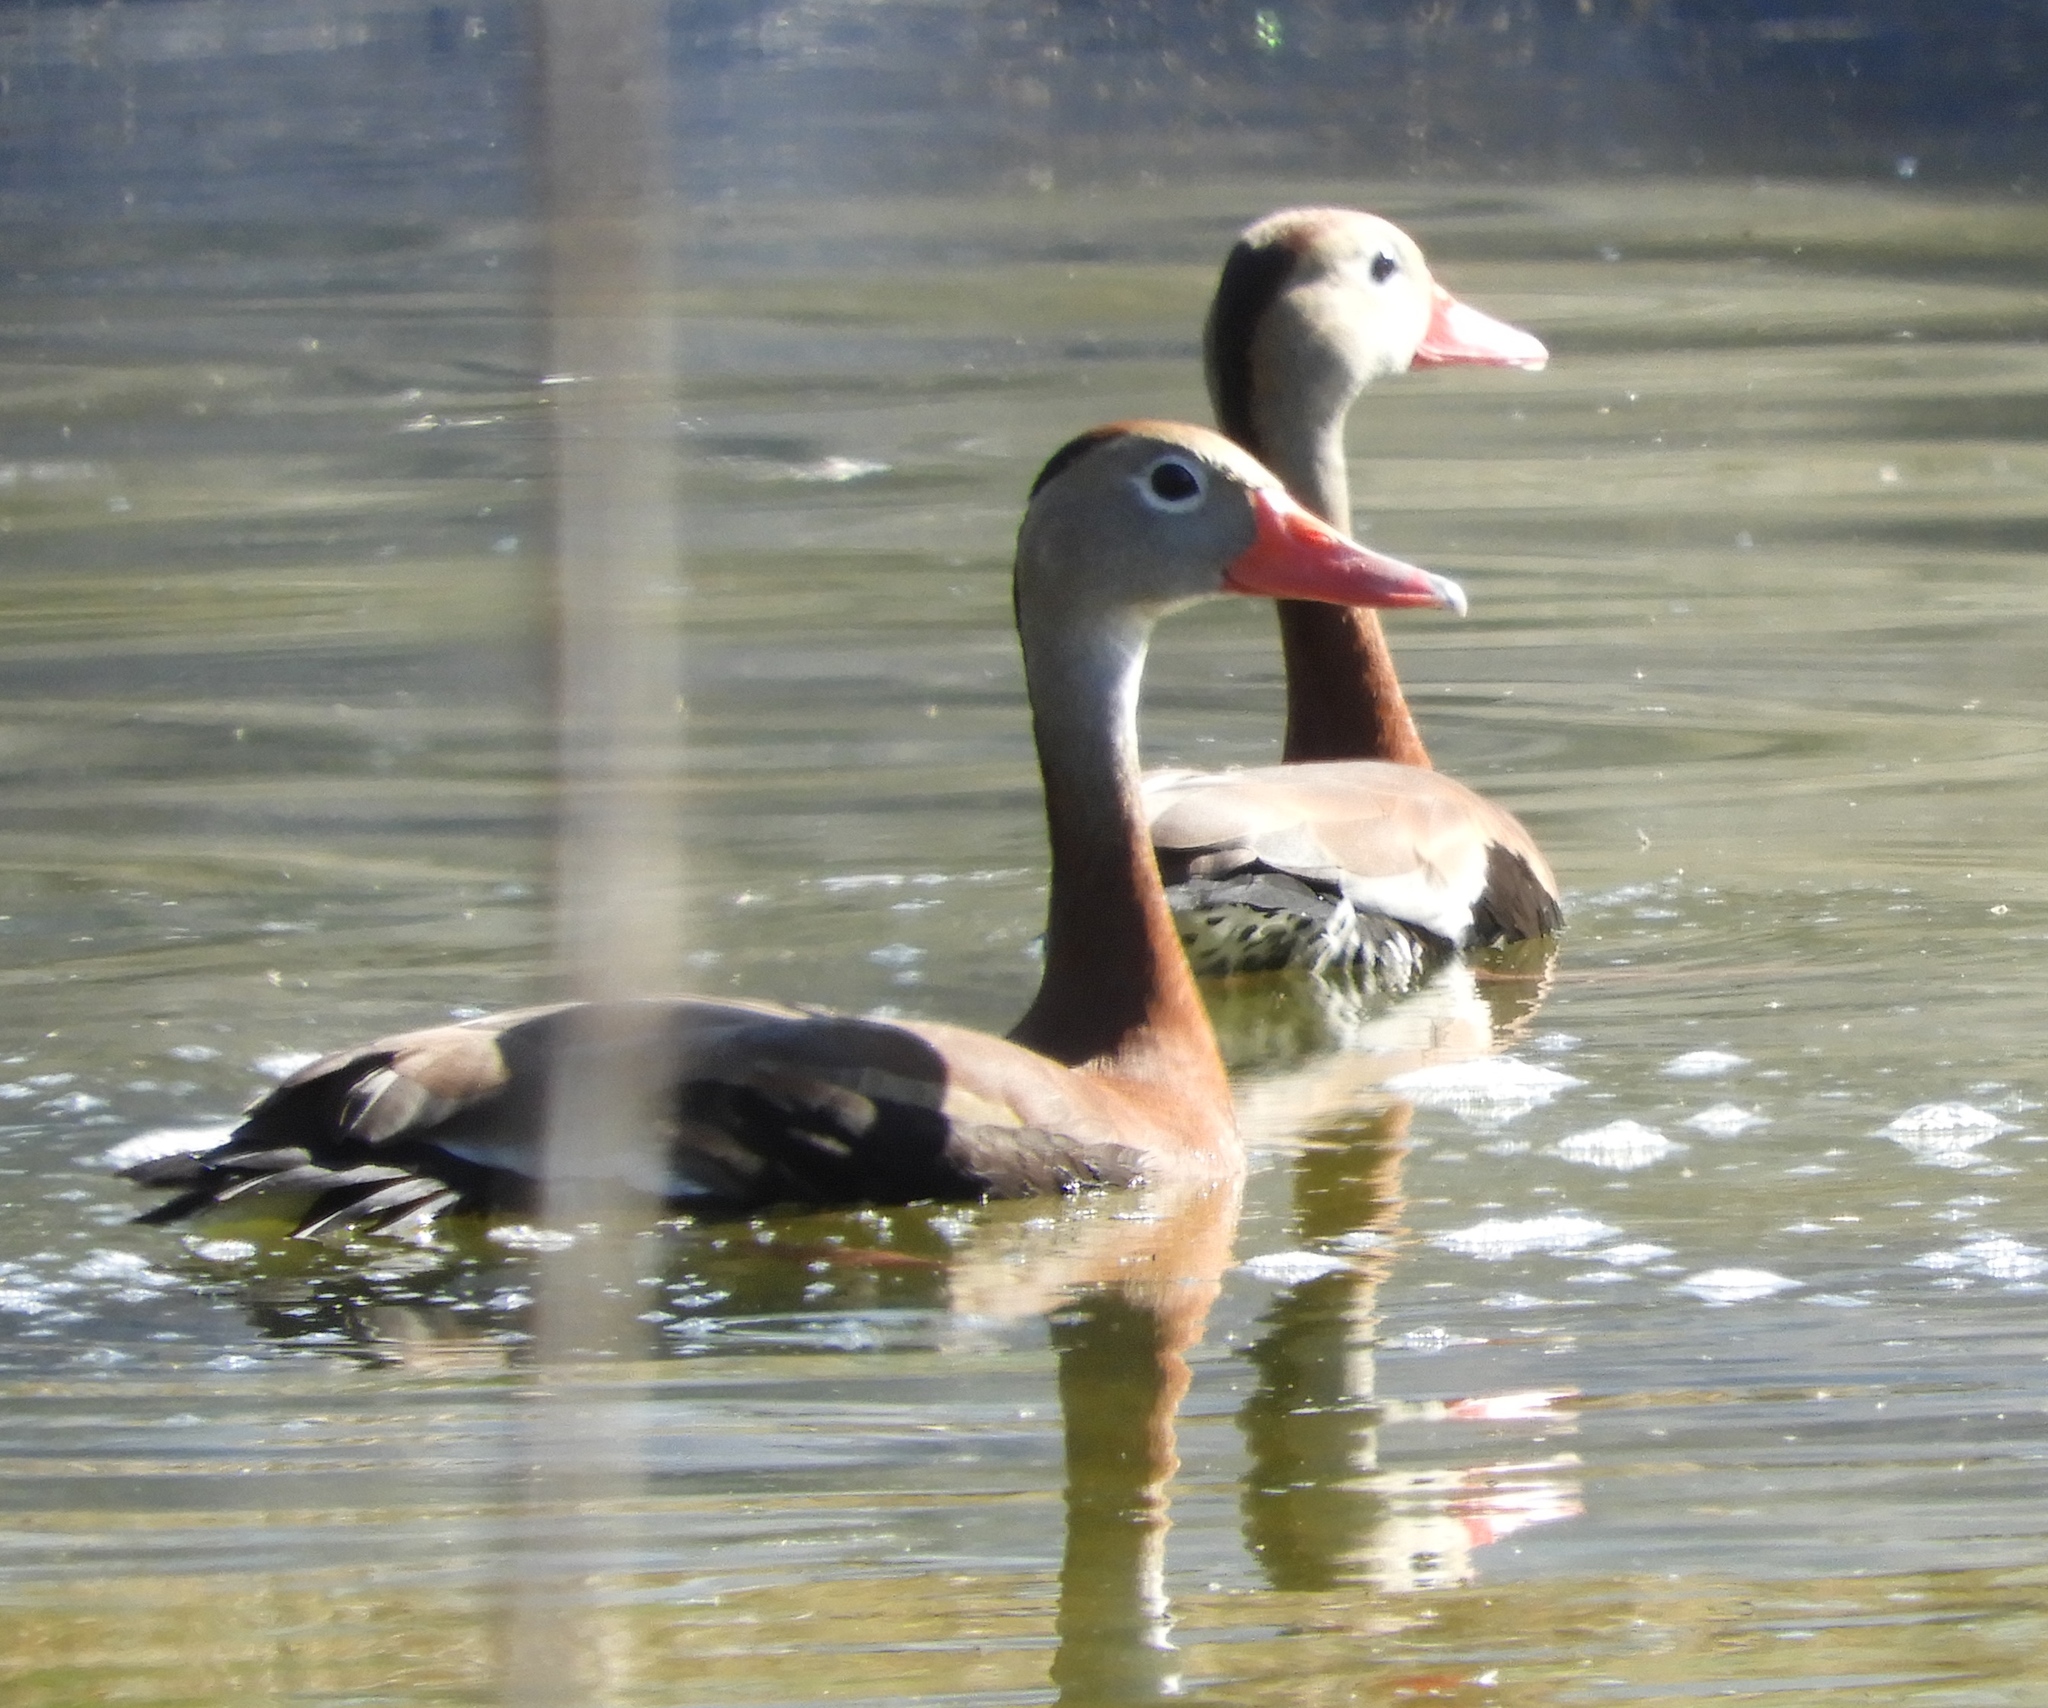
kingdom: Animalia
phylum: Chordata
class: Aves
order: Anseriformes
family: Anatidae
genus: Dendrocygna
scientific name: Dendrocygna autumnalis
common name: Black-bellied whistling duck
